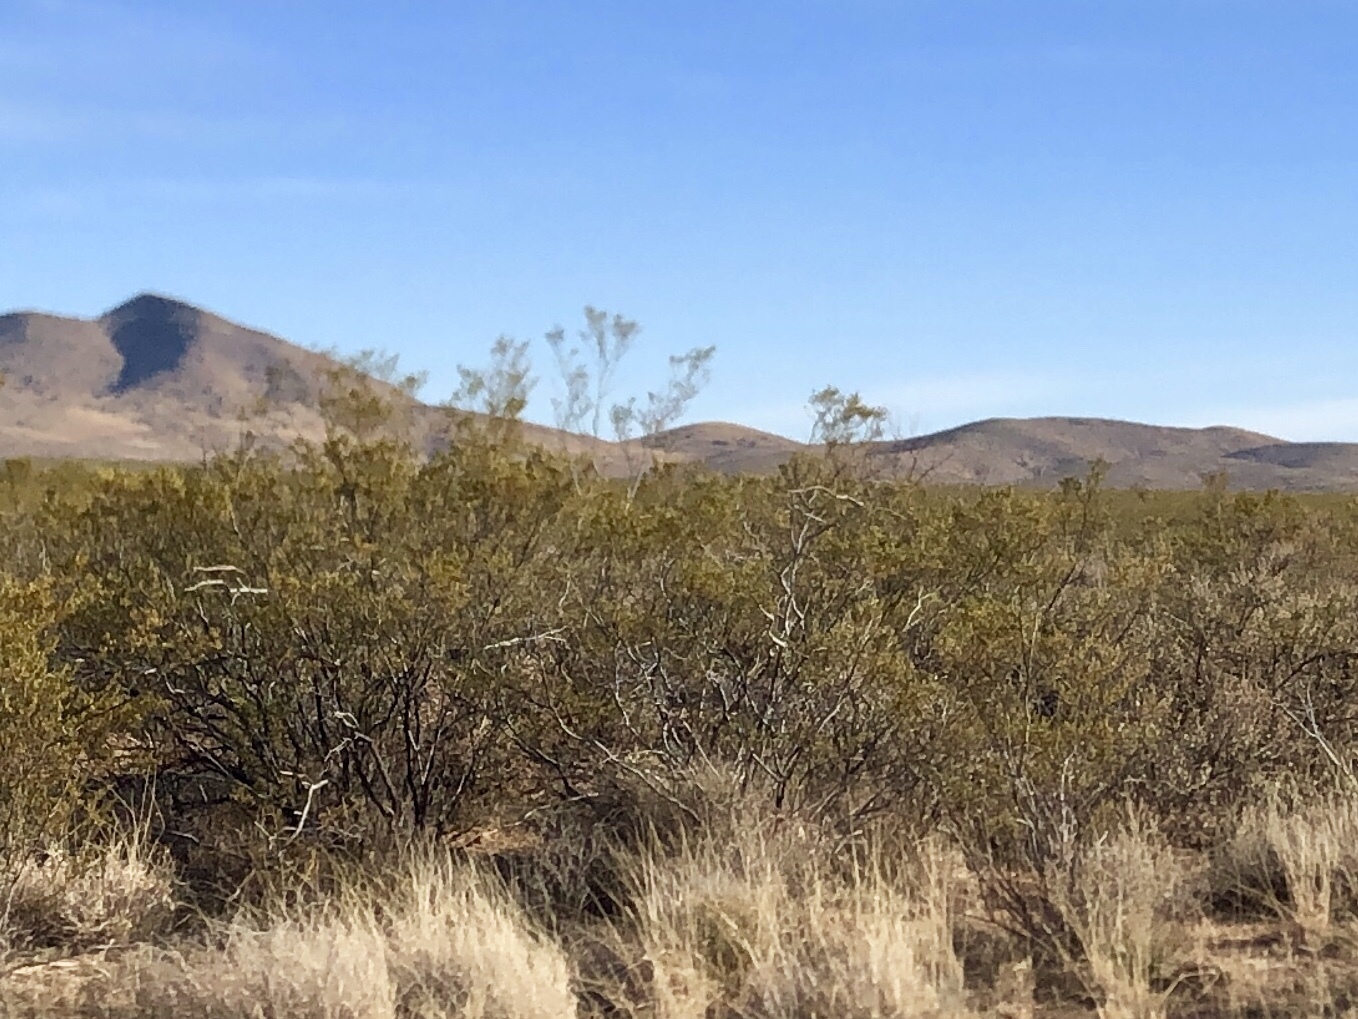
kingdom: Plantae
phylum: Tracheophyta
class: Magnoliopsida
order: Zygophyllales
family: Zygophyllaceae
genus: Larrea
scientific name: Larrea tridentata
